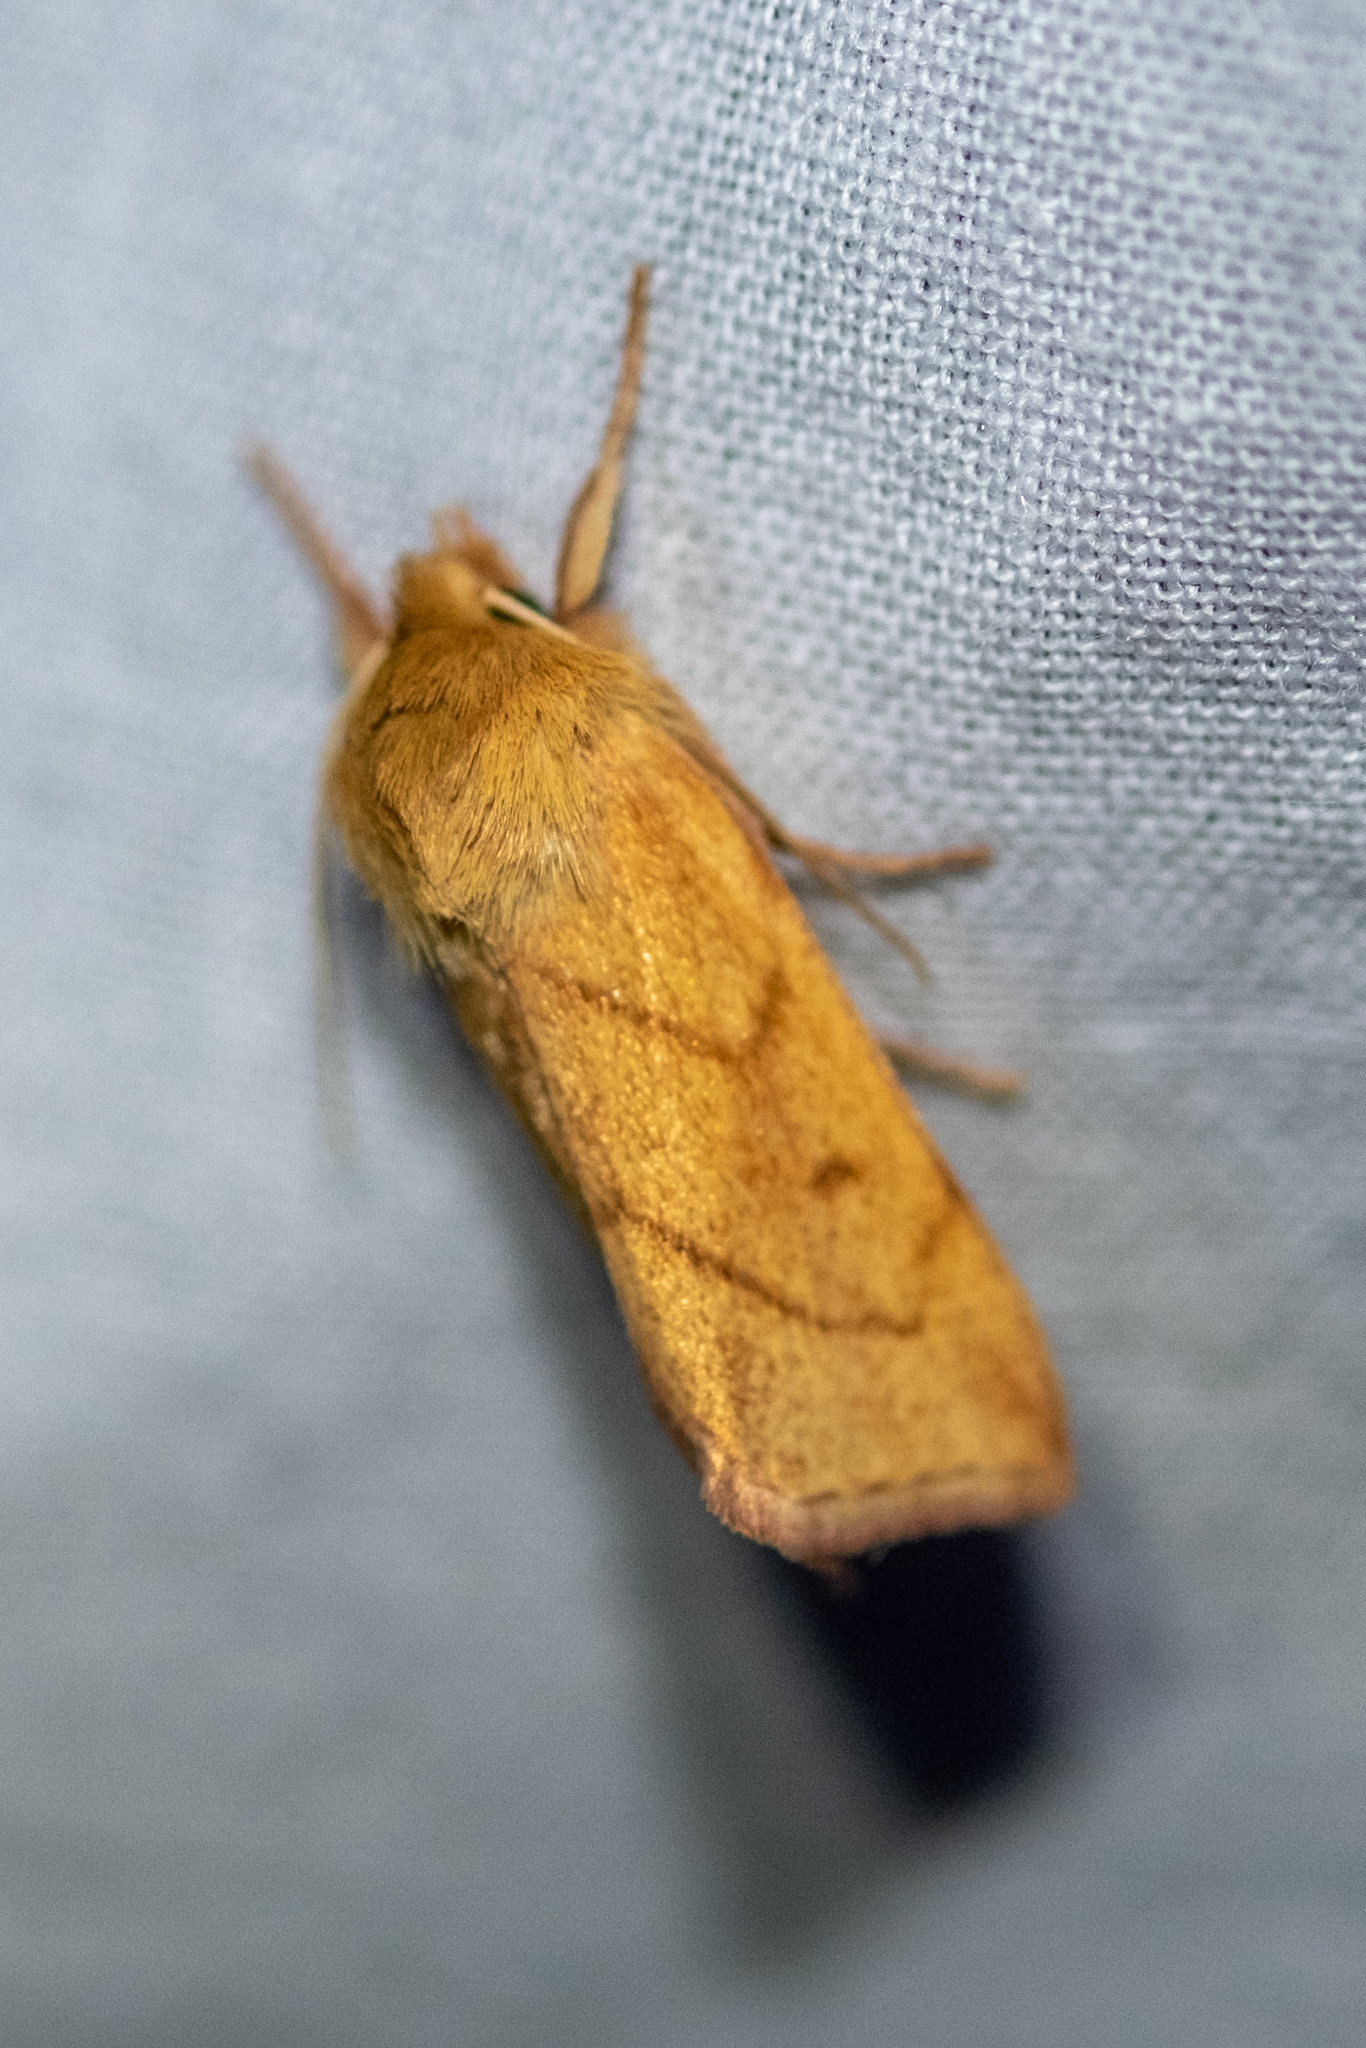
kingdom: Animalia
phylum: Arthropoda
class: Insecta
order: Lepidoptera
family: Noctuidae
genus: Zosteropoda
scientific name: Zosteropoda hirtipes
